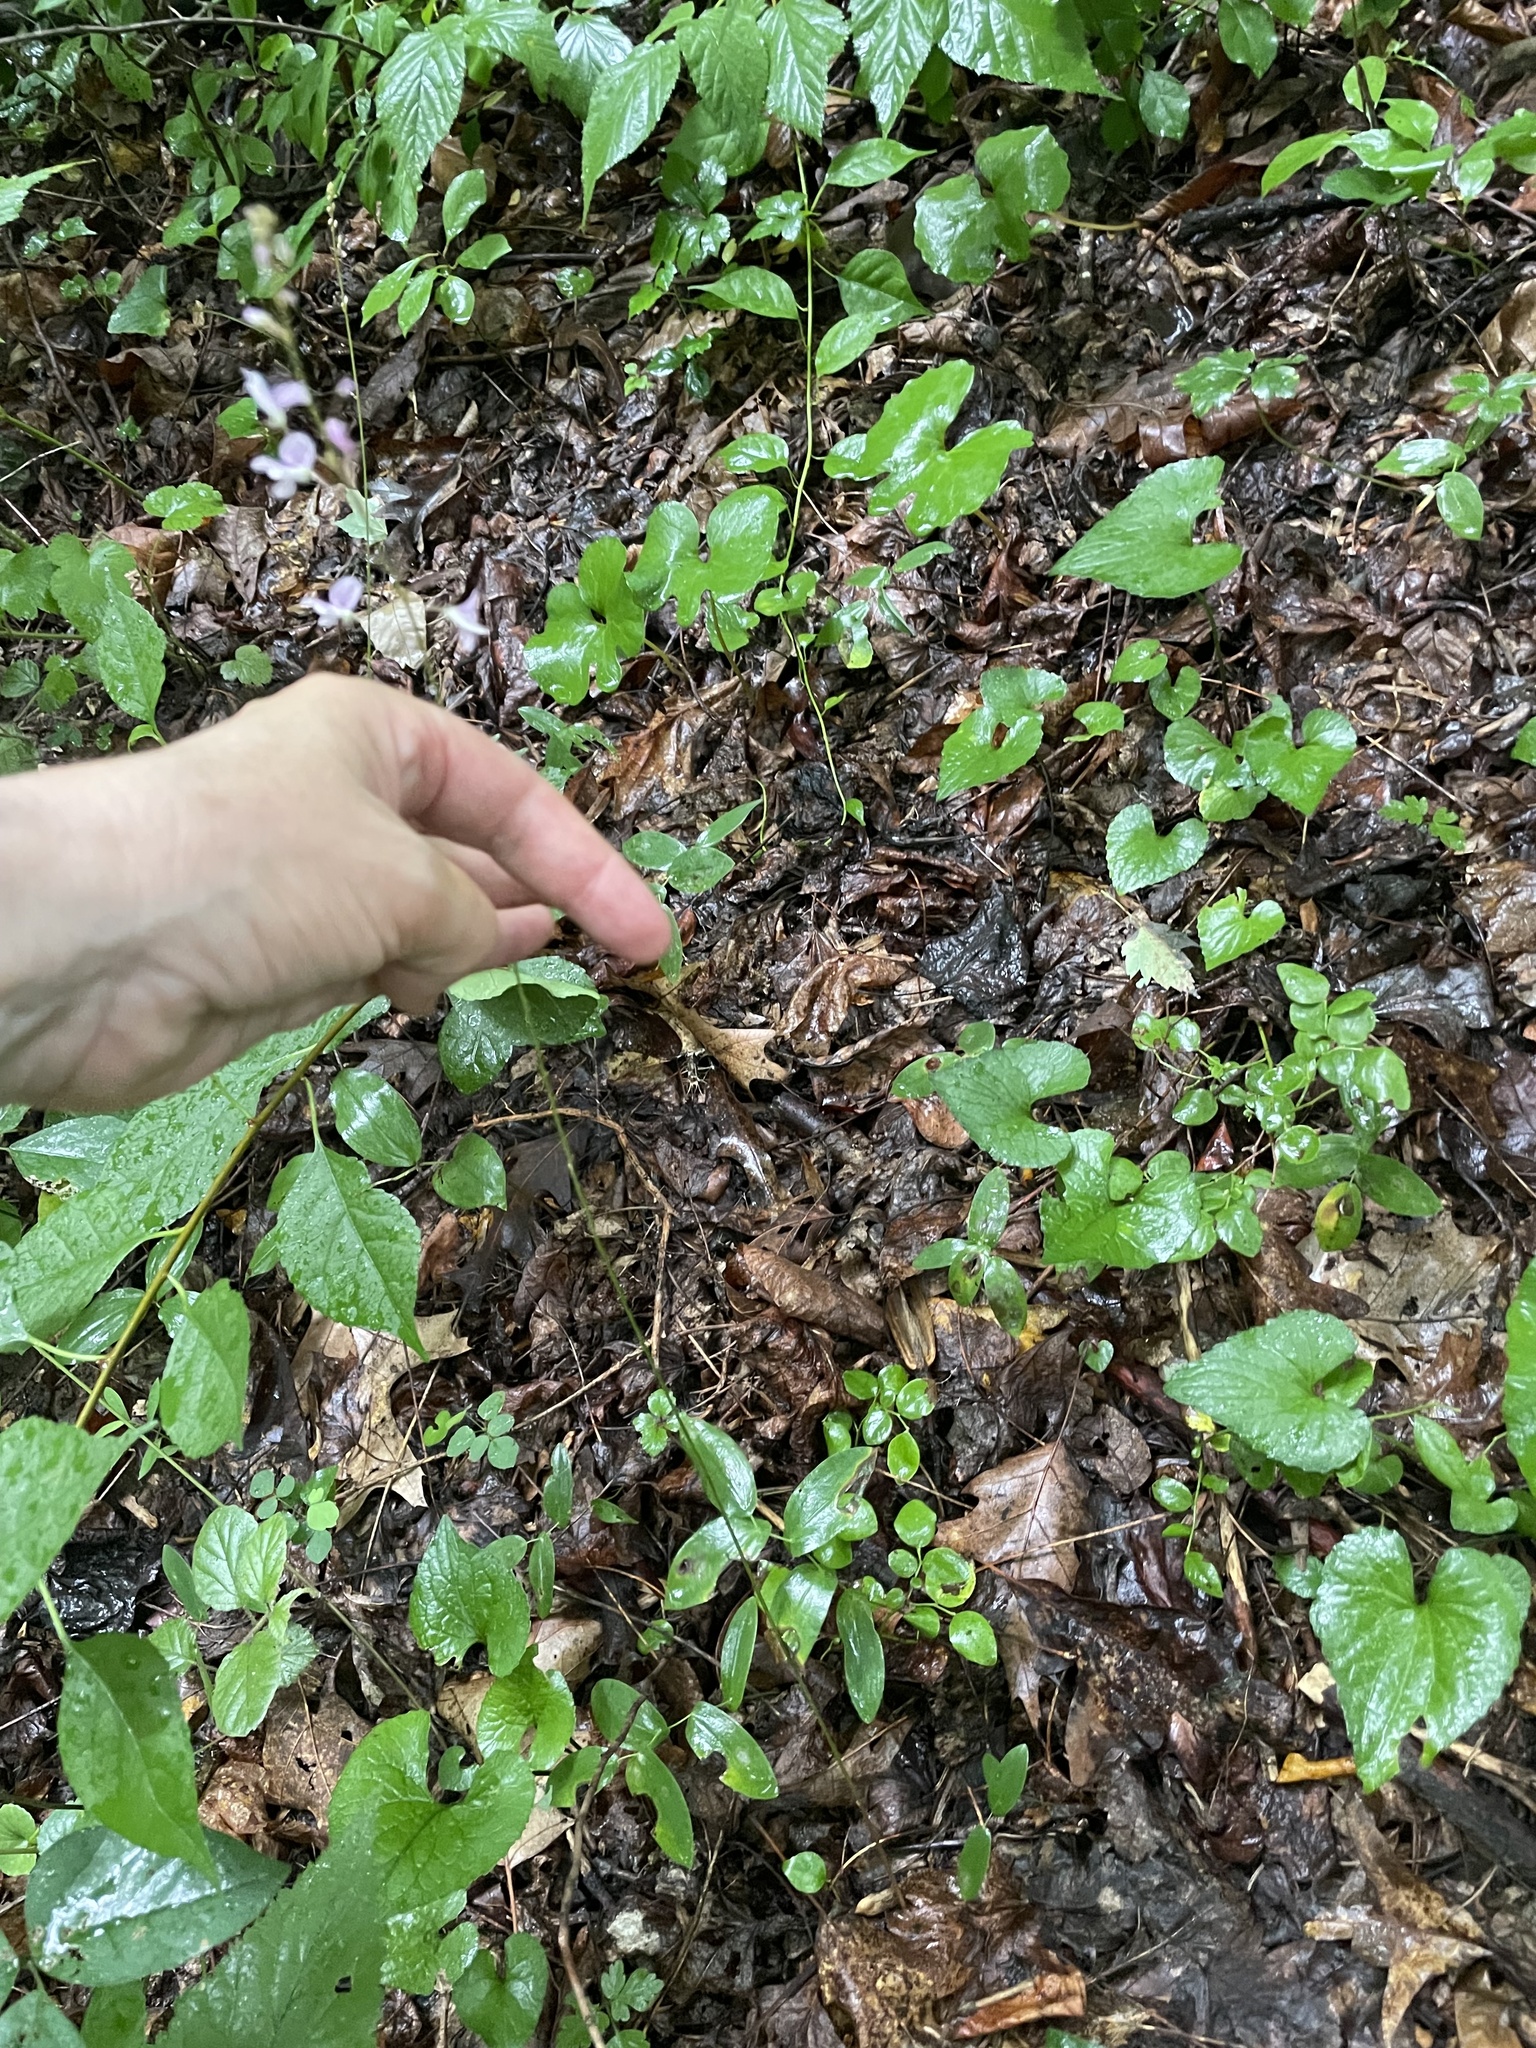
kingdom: Plantae
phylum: Tracheophyta
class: Magnoliopsida
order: Fabales
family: Fabaceae
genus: Hylodesmum
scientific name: Hylodesmum nudiflorum
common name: Bare-stemmed tick-trefoil
